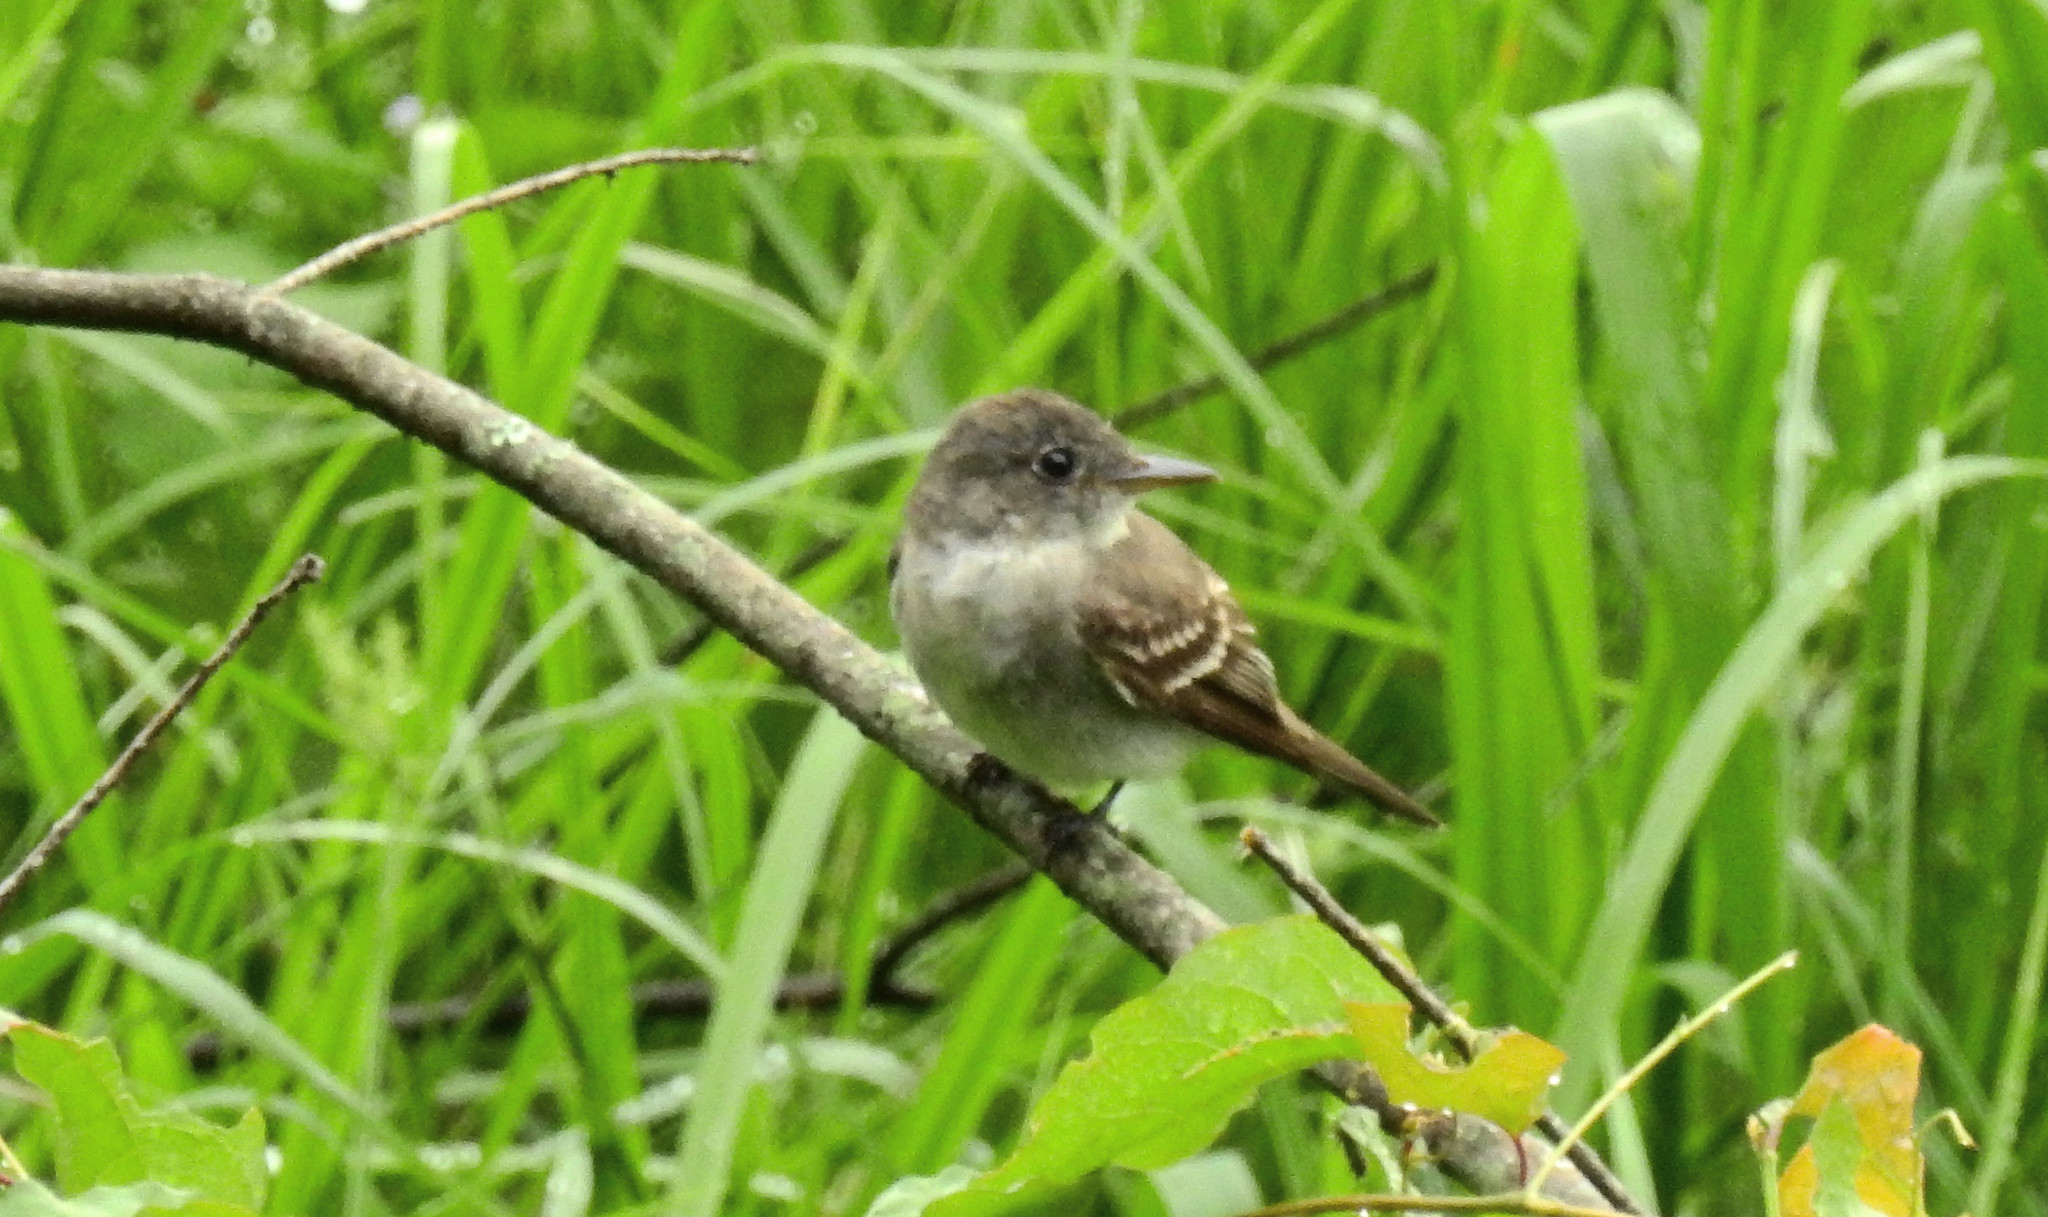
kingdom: Animalia
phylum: Chordata
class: Aves
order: Passeriformes
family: Tyrannidae
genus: Contopus
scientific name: Contopus virens
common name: Eastern wood-pewee
